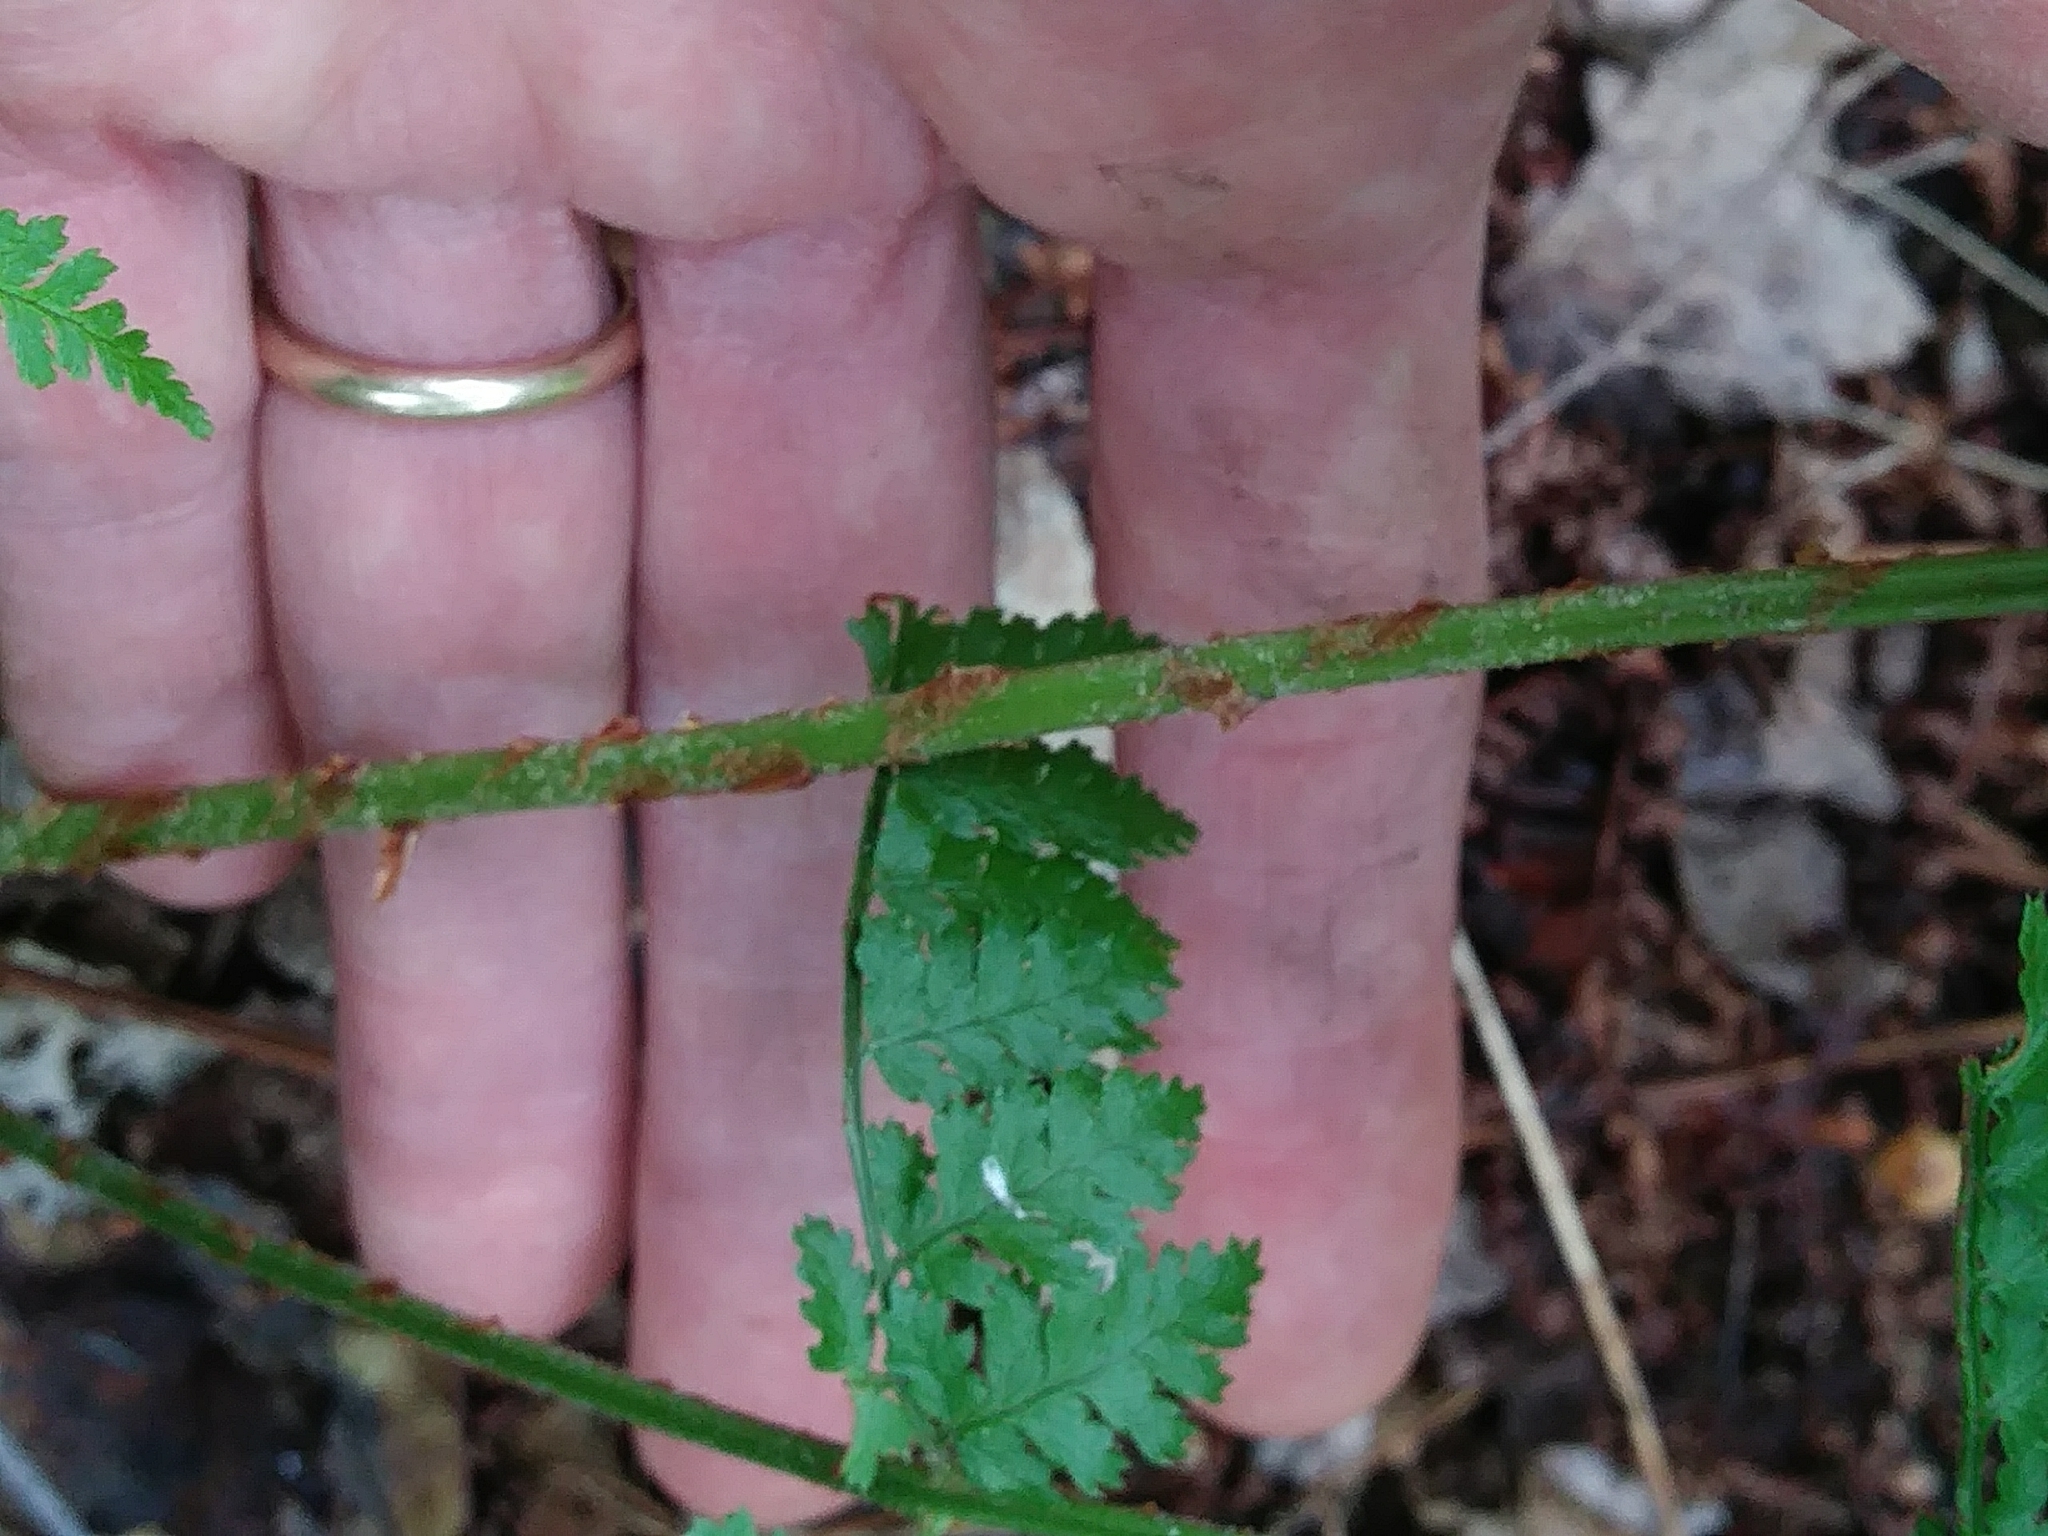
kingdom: Plantae
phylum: Tracheophyta
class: Polypodiopsida
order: Polypodiales
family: Dryopteridaceae
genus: Dryopteris
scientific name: Dryopteris intermedia
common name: Evergreen wood fern
